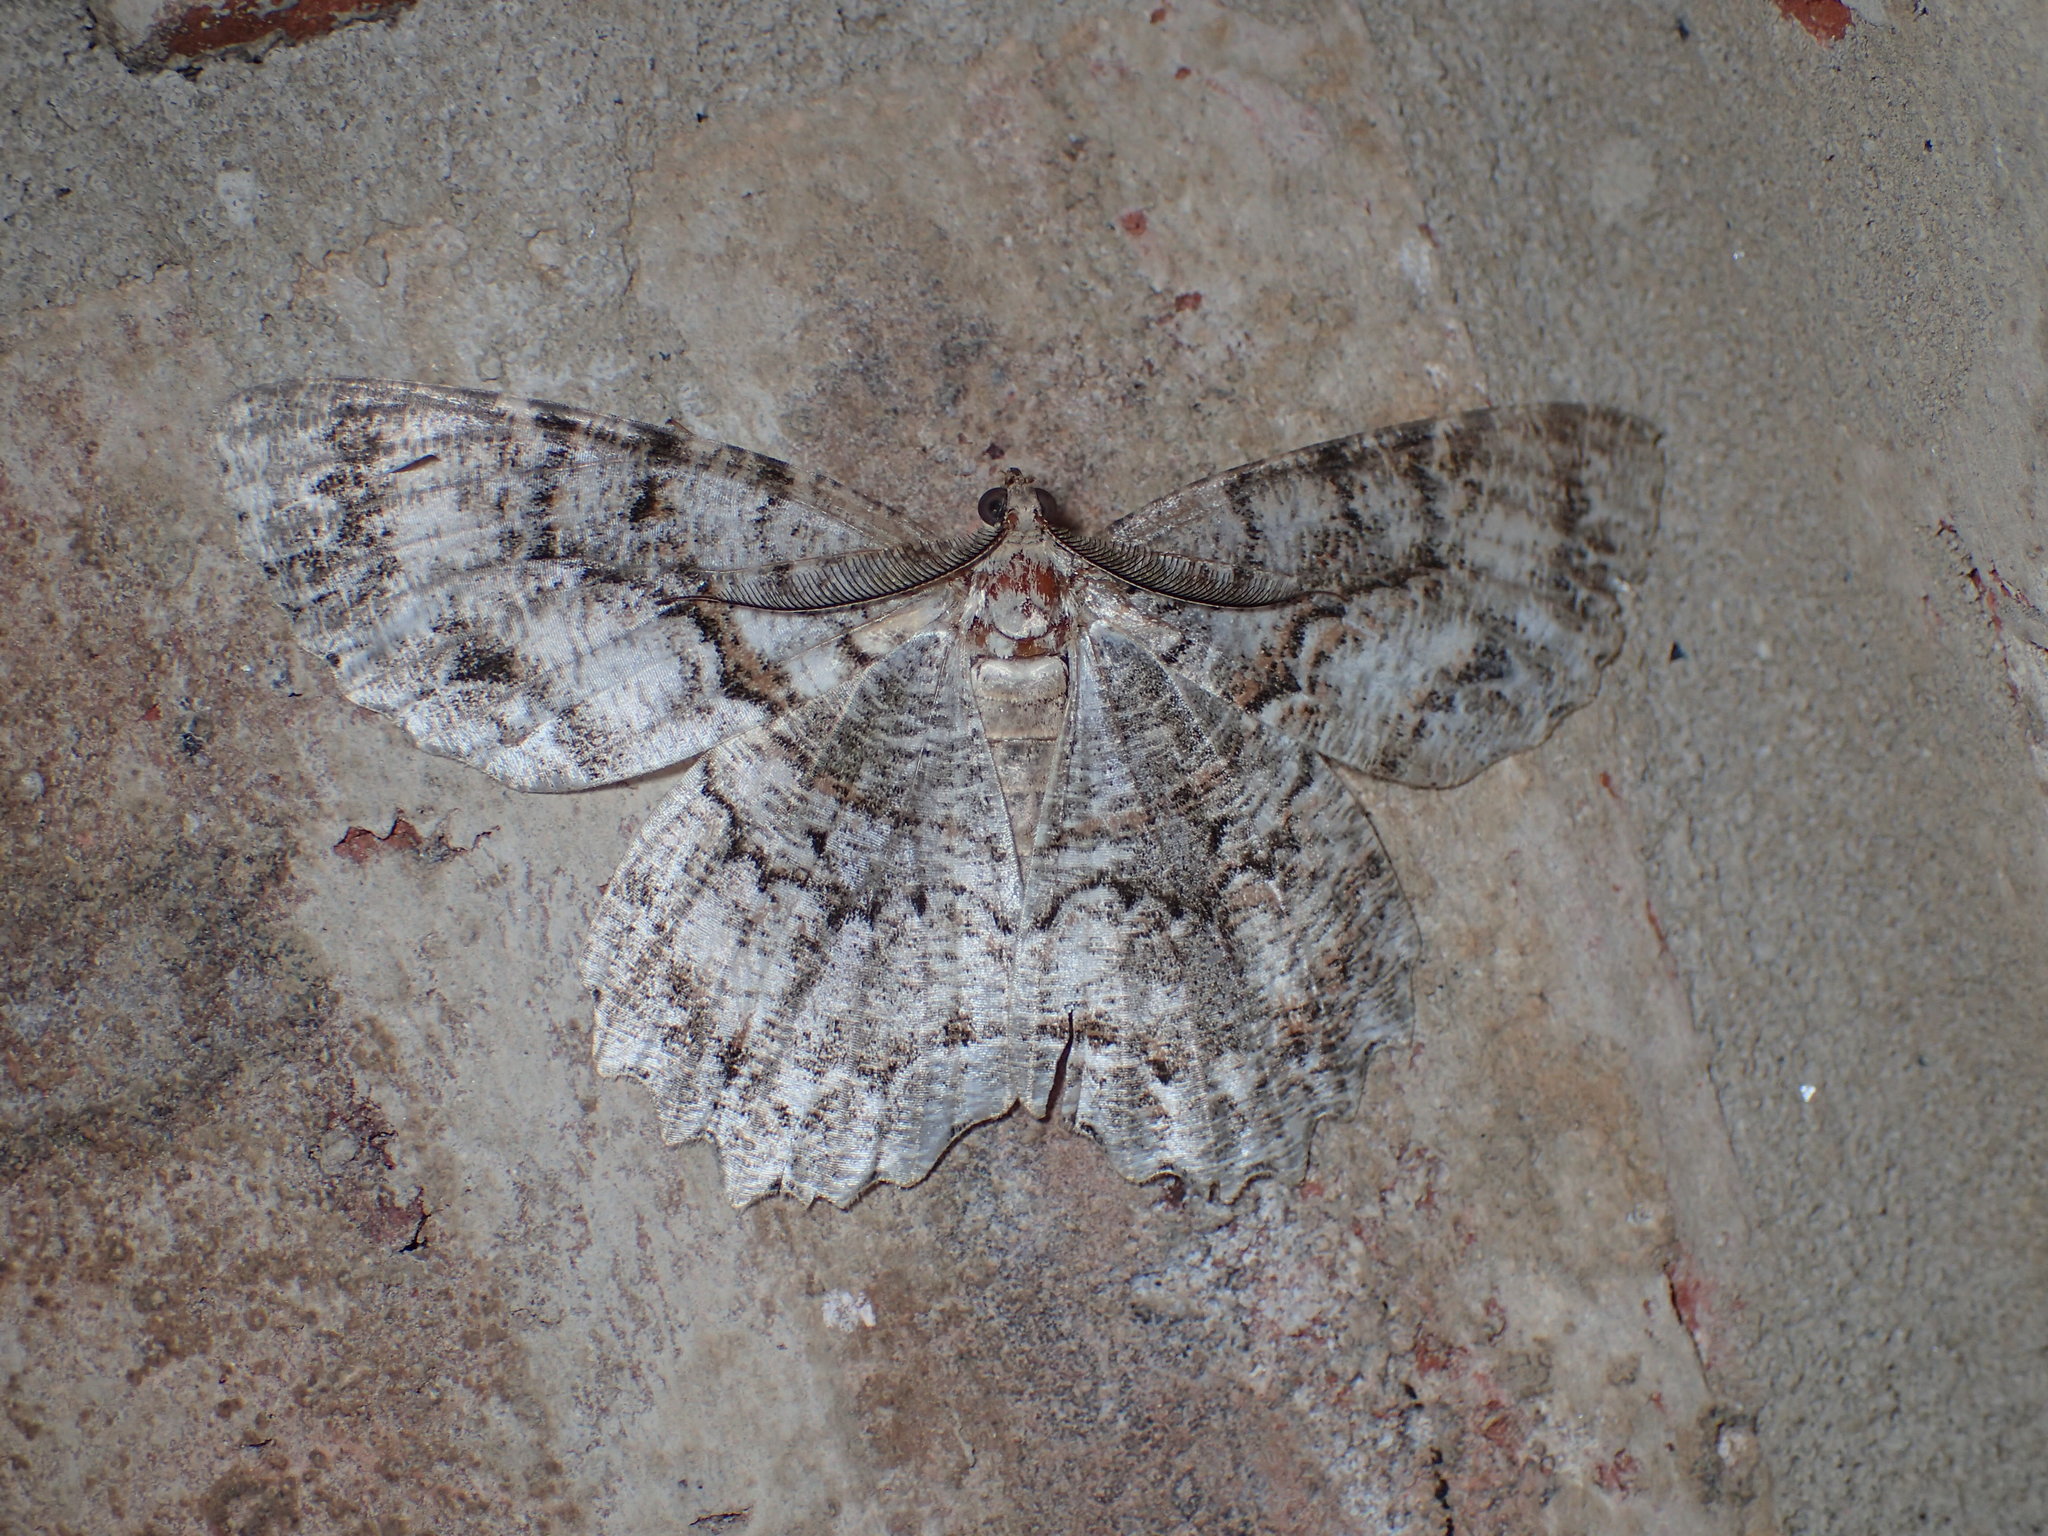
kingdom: Animalia
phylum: Arthropoda
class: Insecta
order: Lepidoptera
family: Geometridae
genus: Epimecis
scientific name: Epimecis hortaria
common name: Tulip-tree beauty
